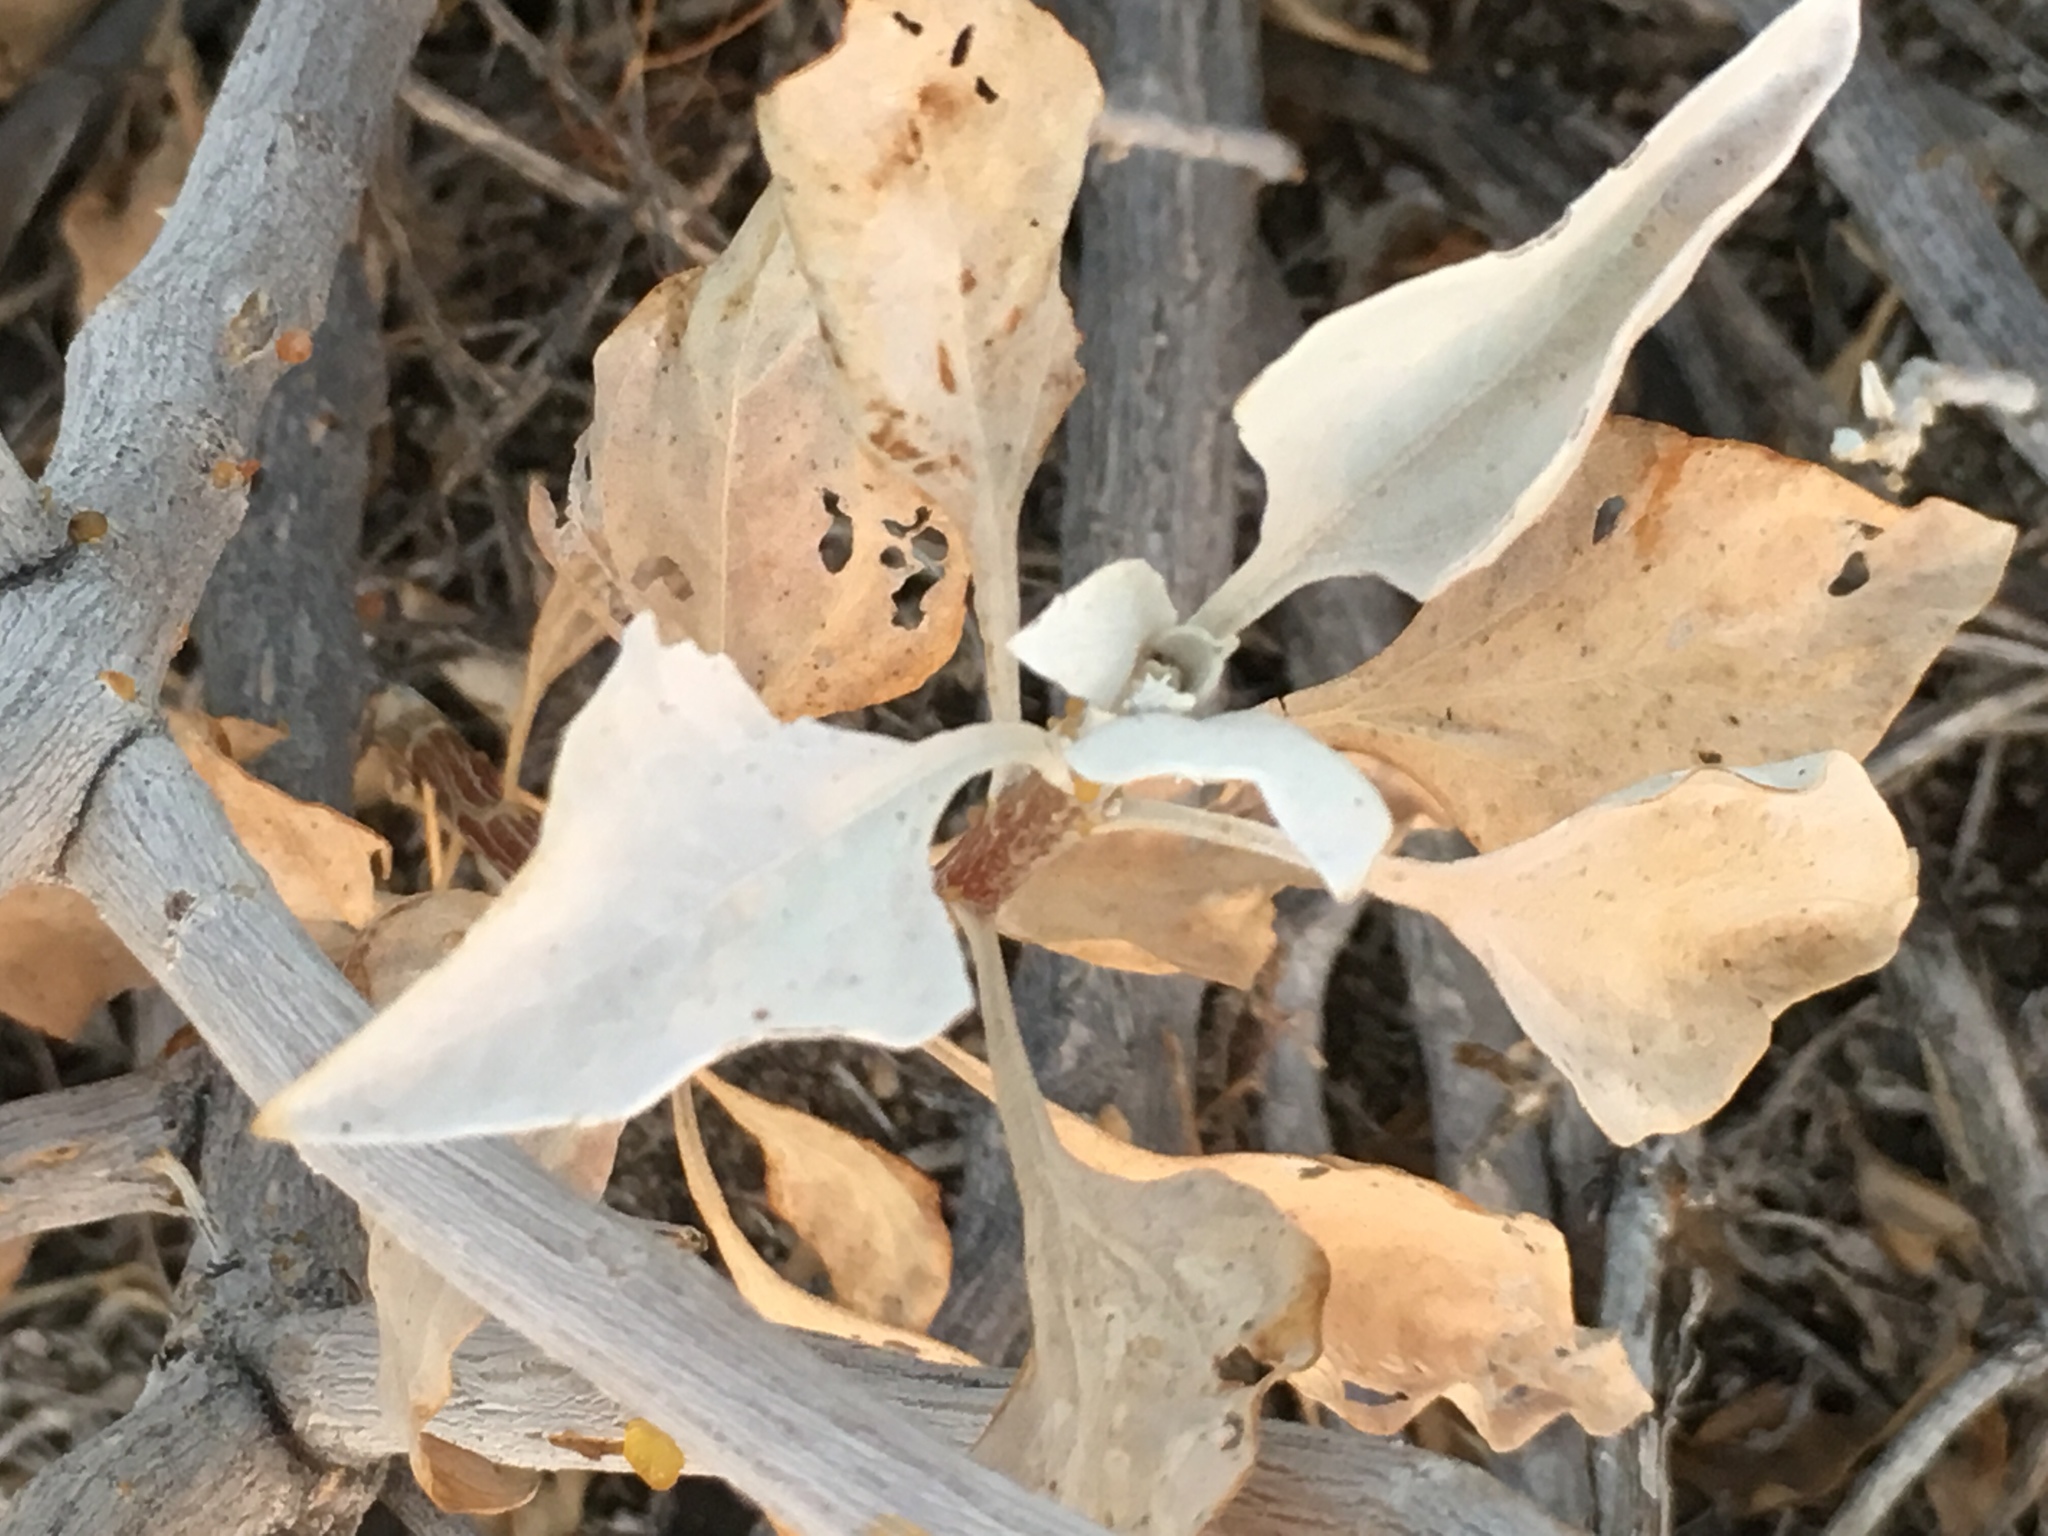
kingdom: Plantae
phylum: Tracheophyta
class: Magnoliopsida
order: Asterales
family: Asteraceae
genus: Encelia
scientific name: Encelia farinosa
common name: Brittlebush
